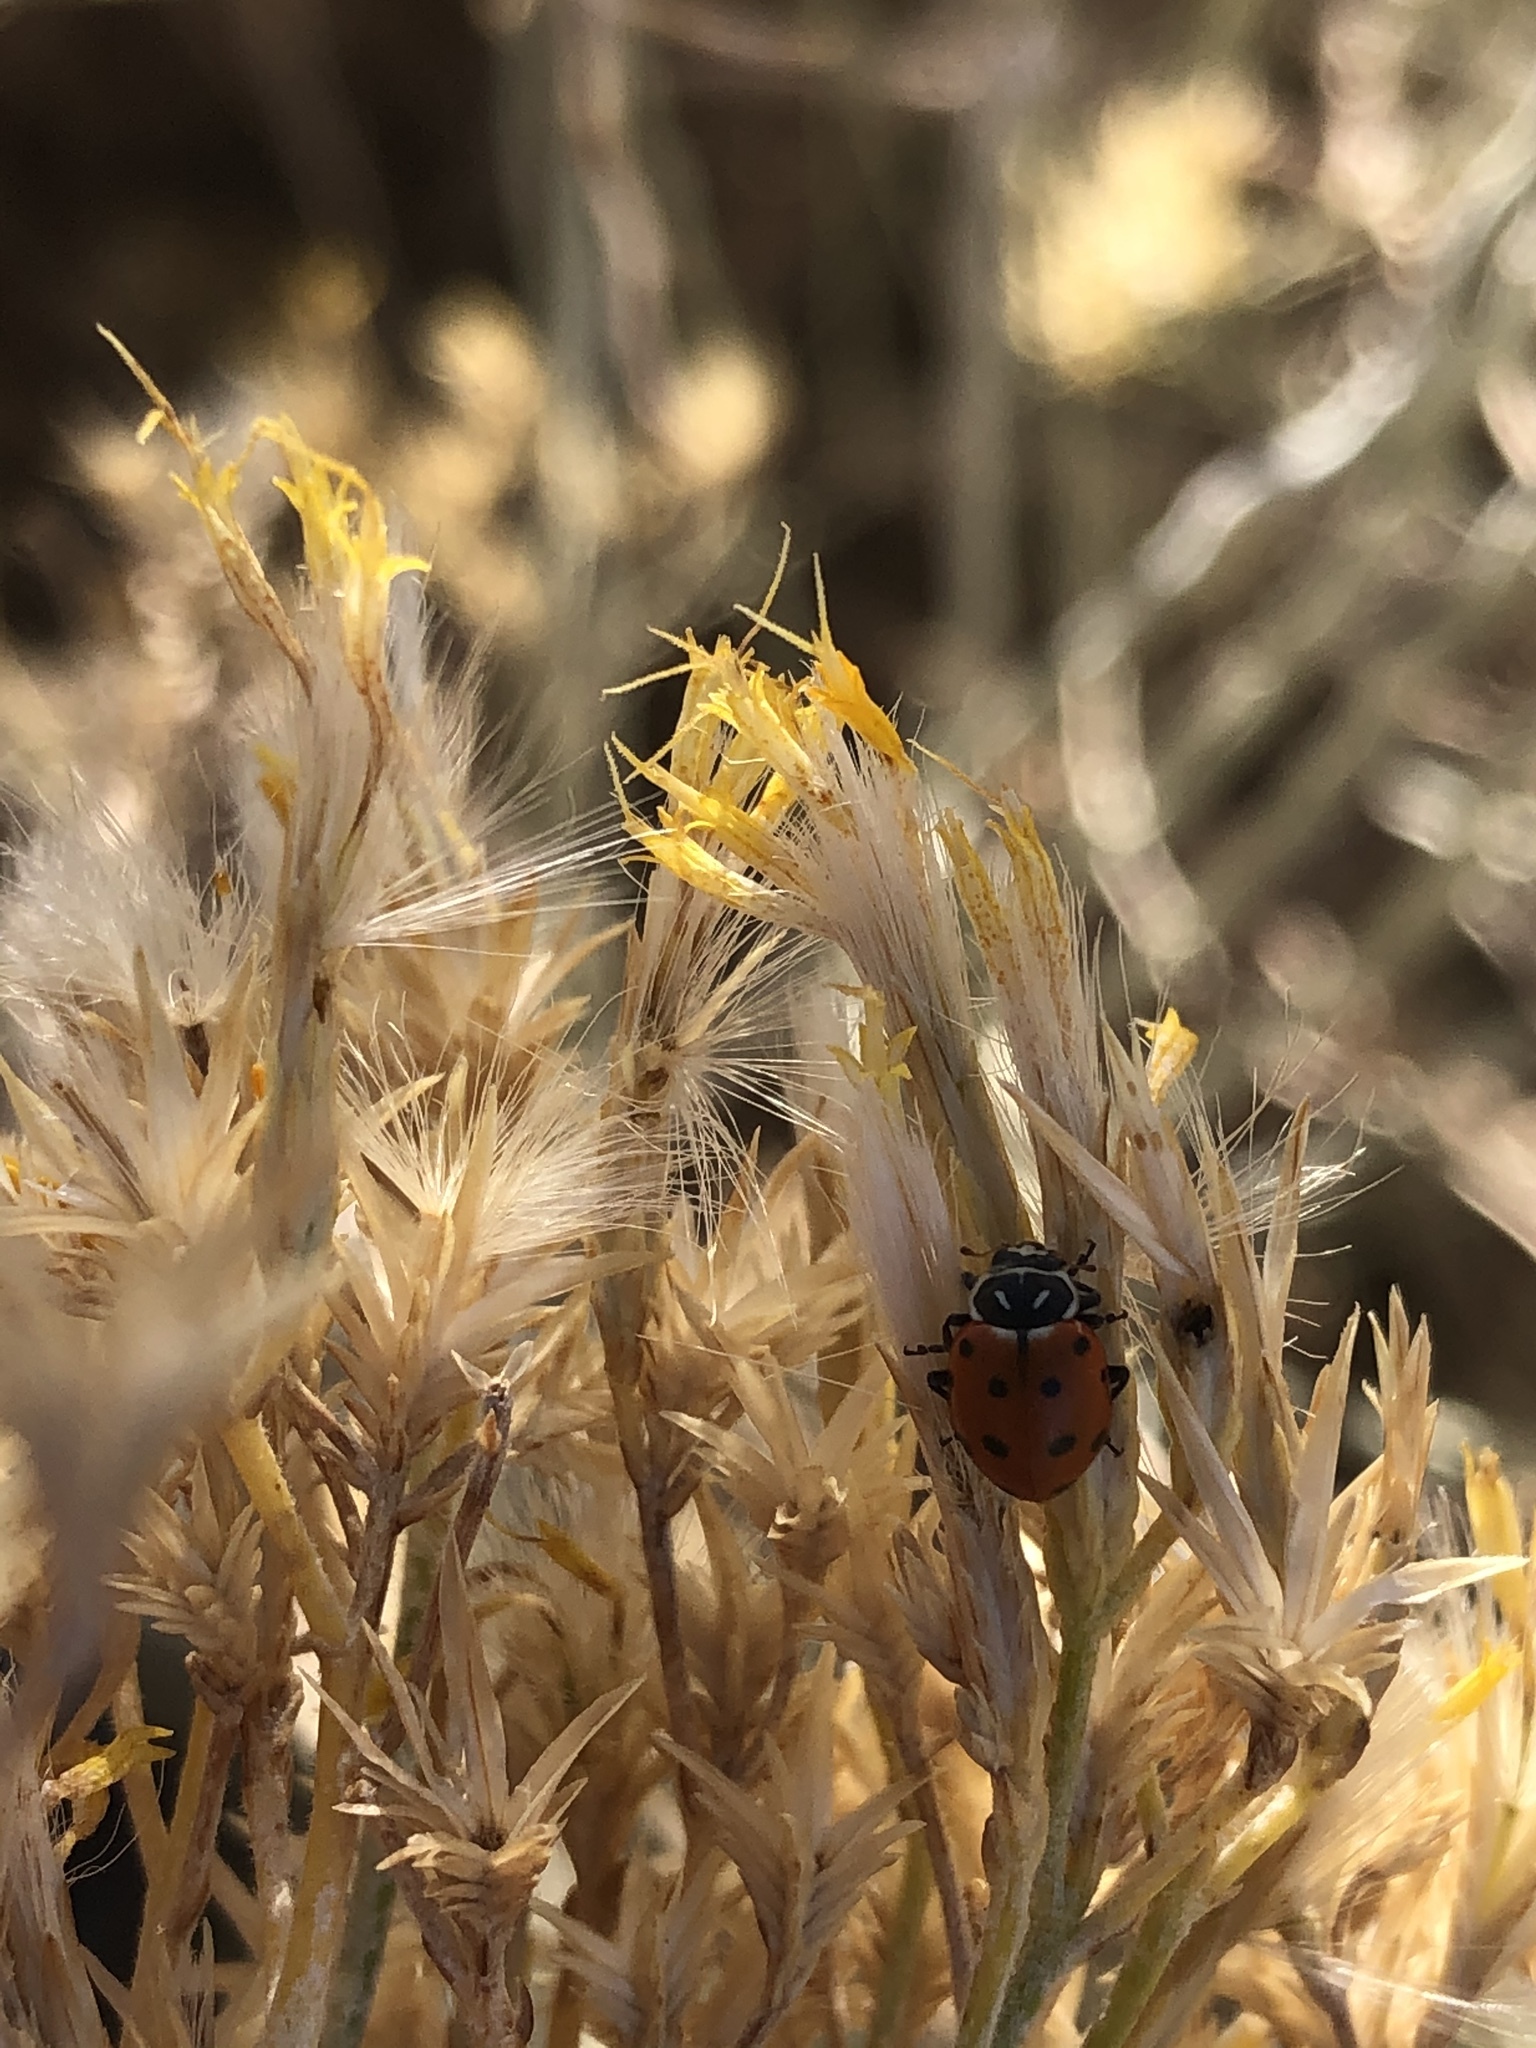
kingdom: Animalia
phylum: Arthropoda
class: Insecta
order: Coleoptera
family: Coccinellidae
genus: Hippodamia
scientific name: Hippodamia convergens
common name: Convergent lady beetle
